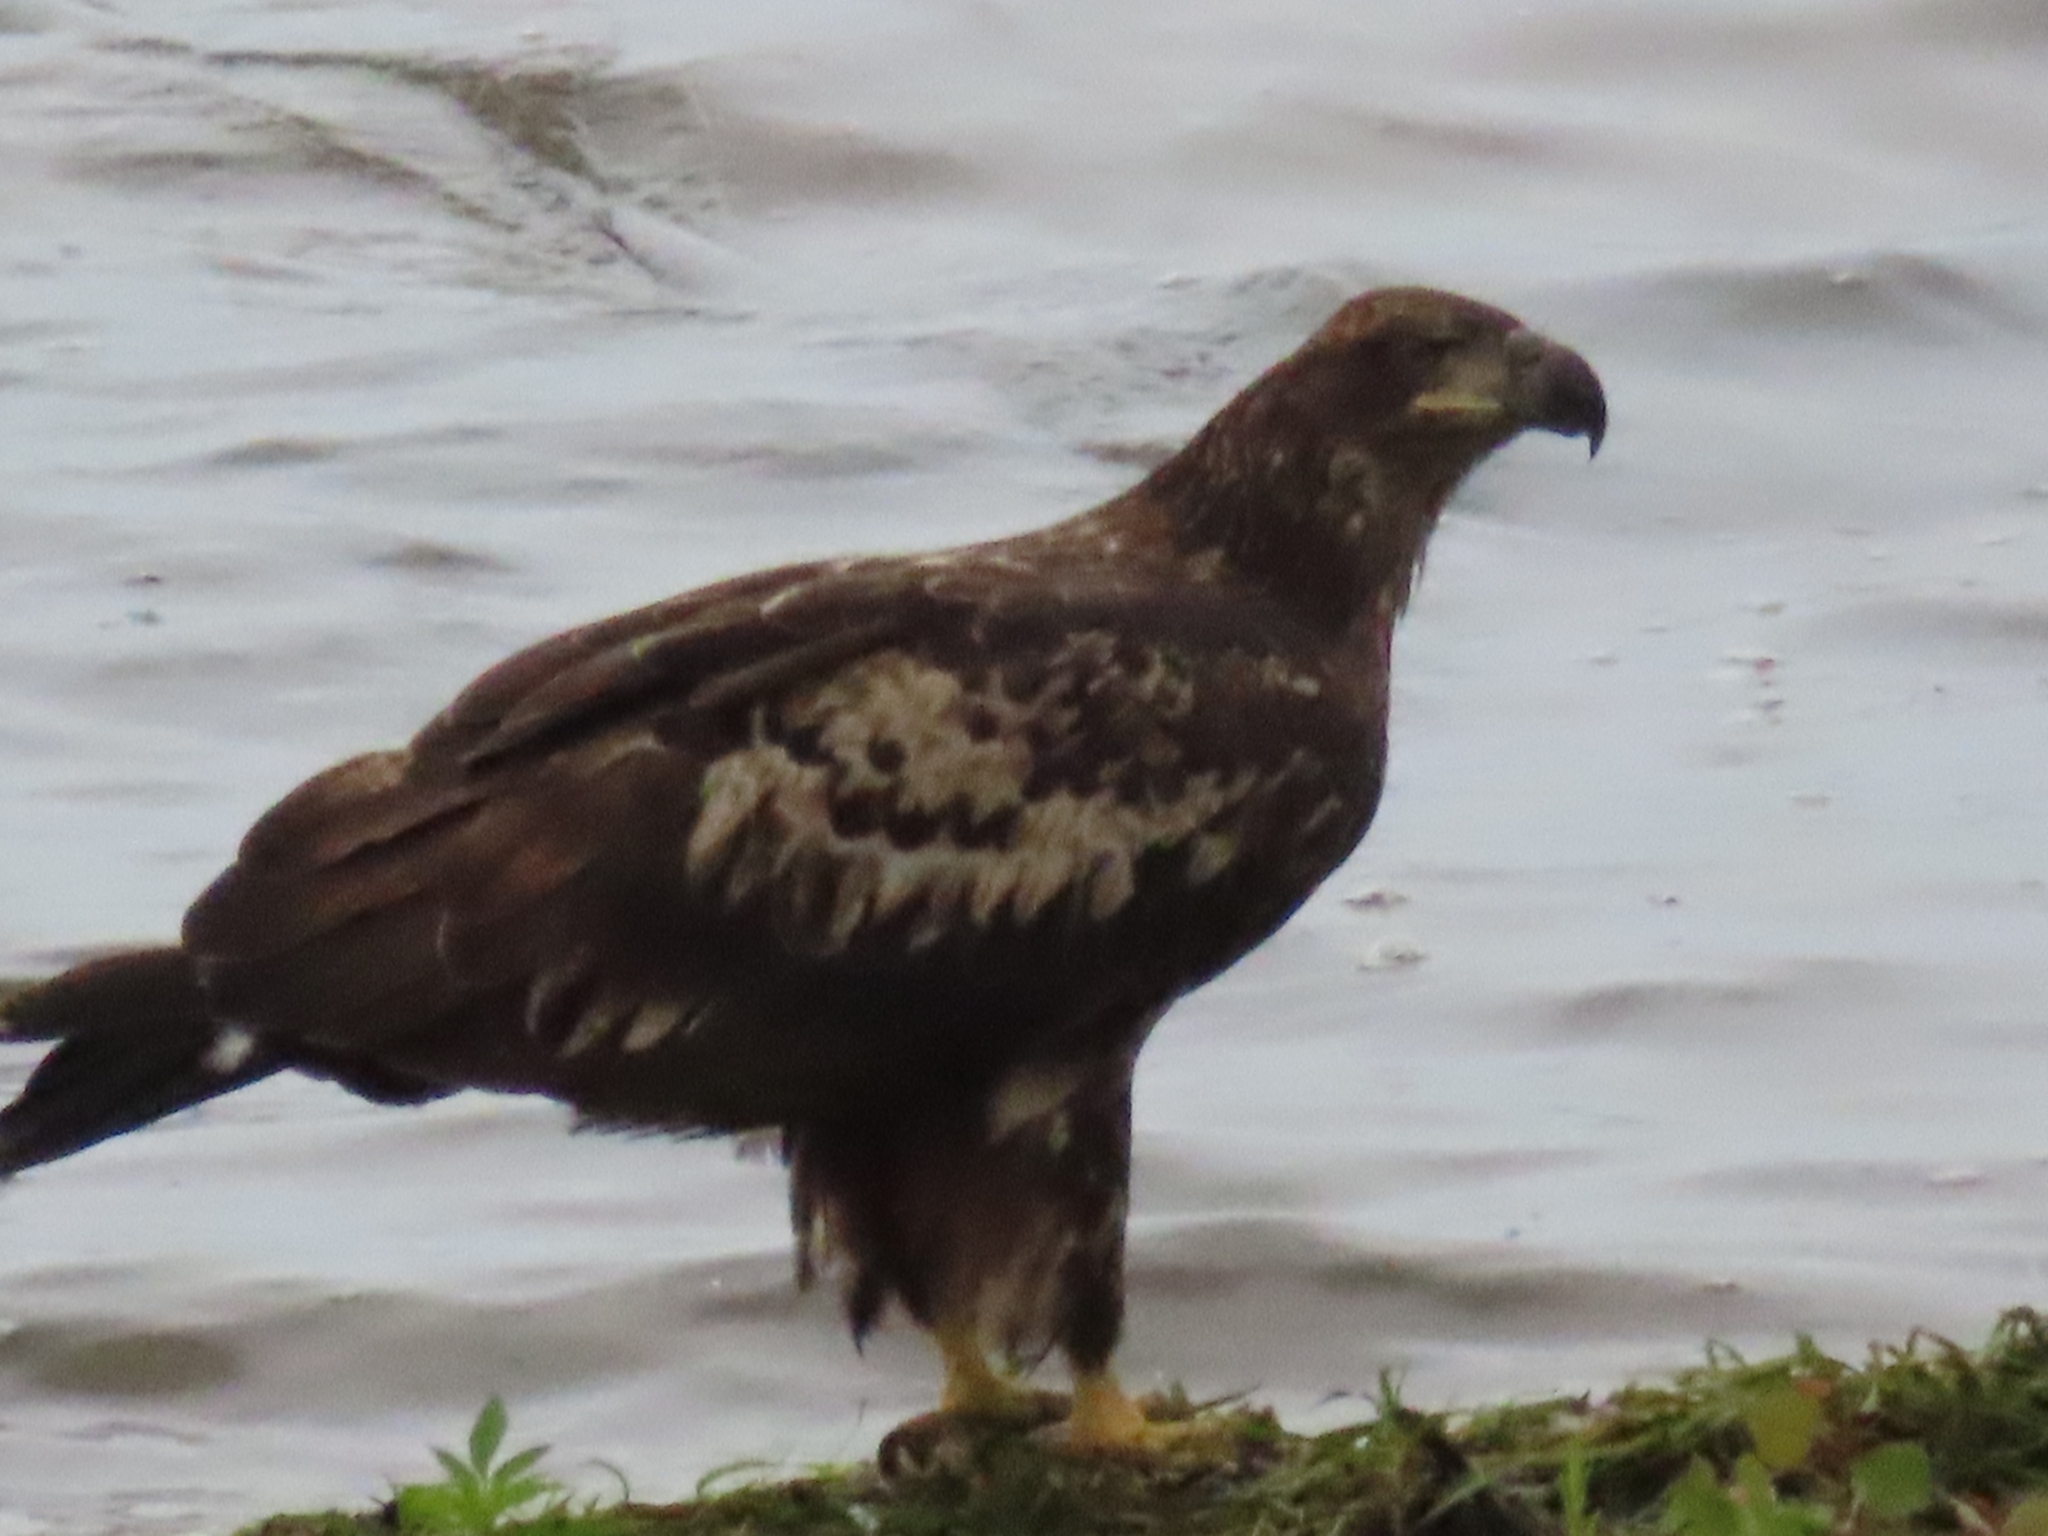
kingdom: Animalia
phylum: Chordata
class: Aves
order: Accipitriformes
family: Accipitridae
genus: Haliaeetus
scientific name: Haliaeetus leucocephalus
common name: Bald eagle
